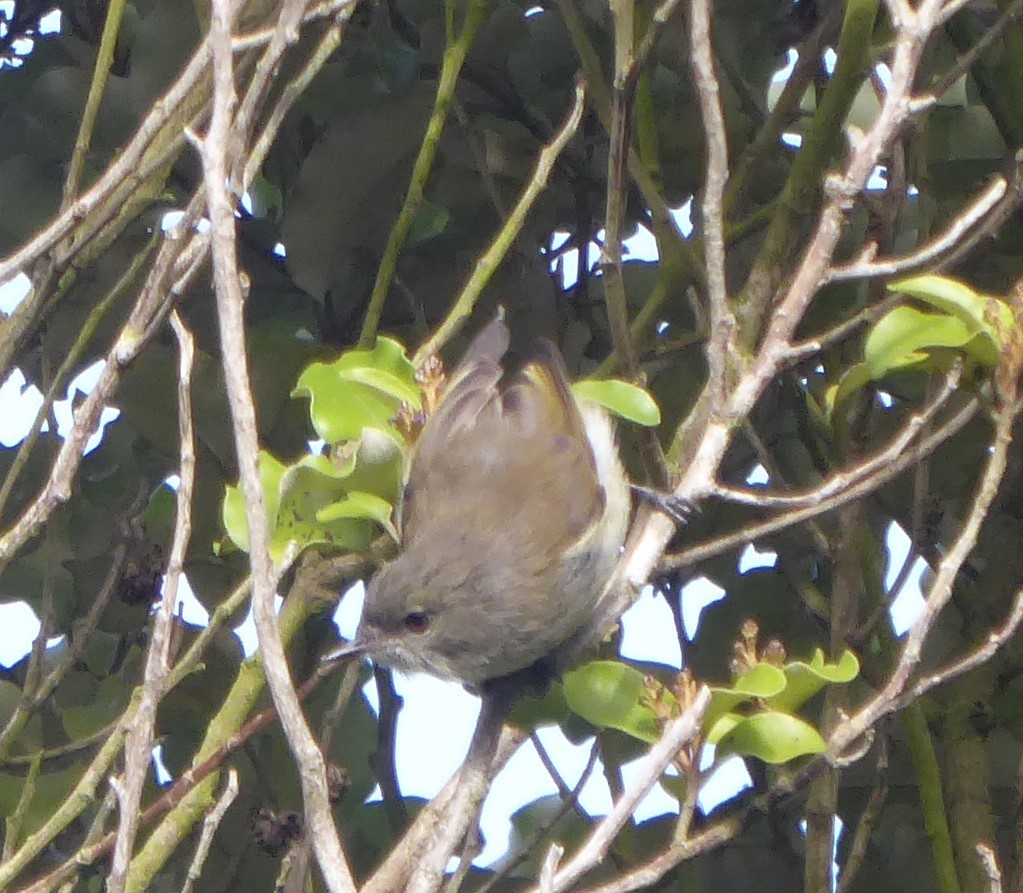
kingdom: Animalia
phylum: Chordata
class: Aves
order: Passeriformes
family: Acanthizidae
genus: Gerygone
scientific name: Gerygone igata
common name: Grey gerygone
